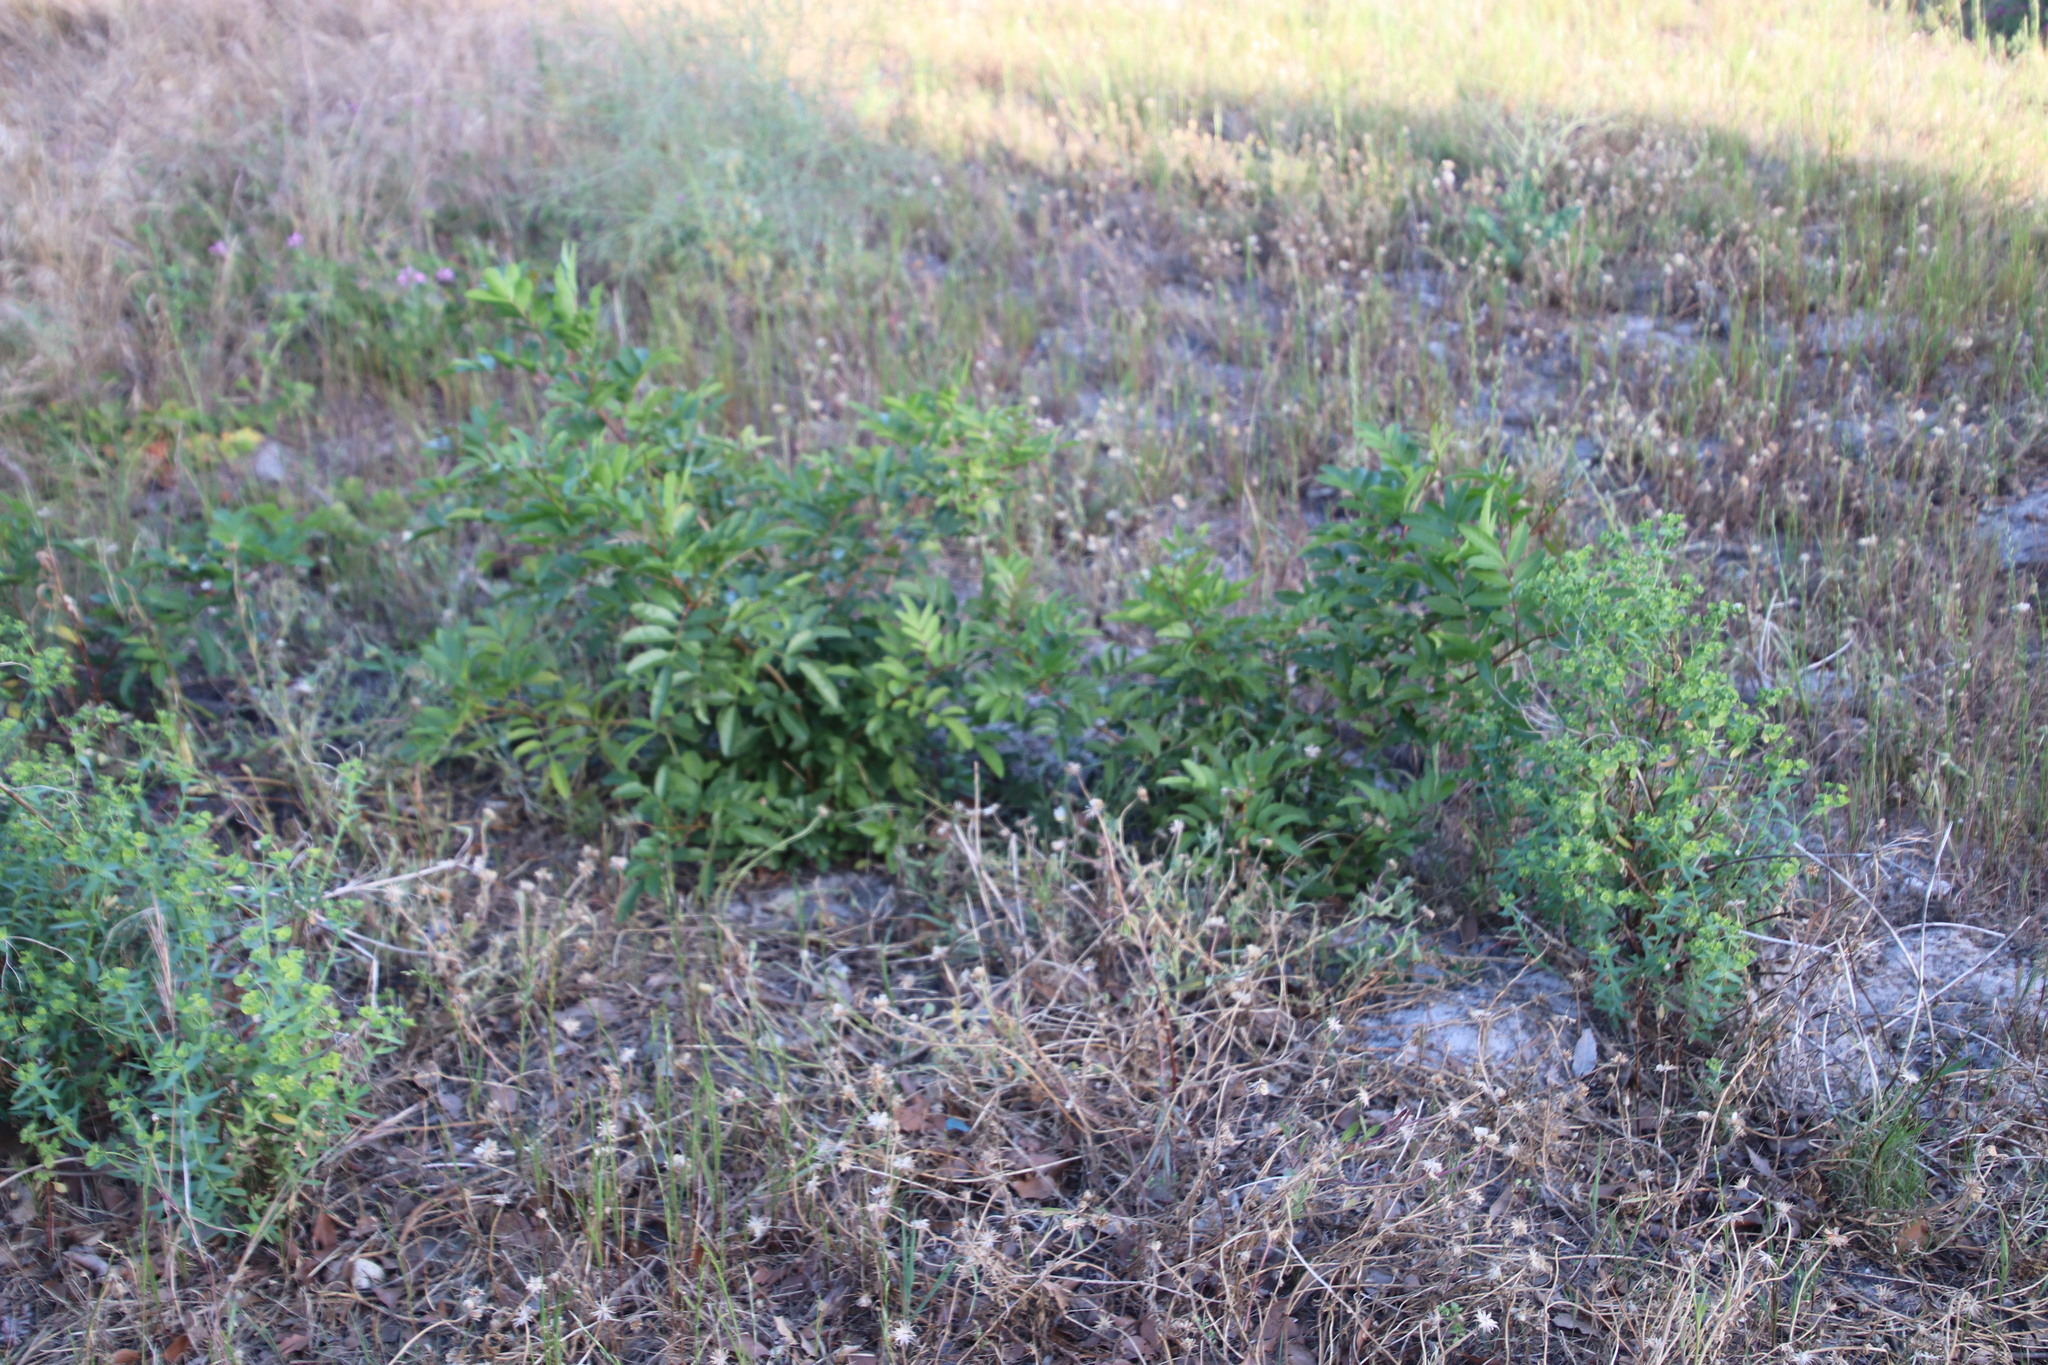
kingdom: Plantae
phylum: Tracheophyta
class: Magnoliopsida
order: Sapindales
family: Anacardiaceae
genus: Schinus
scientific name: Schinus terebinthifolia
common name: Brazilian peppertree
